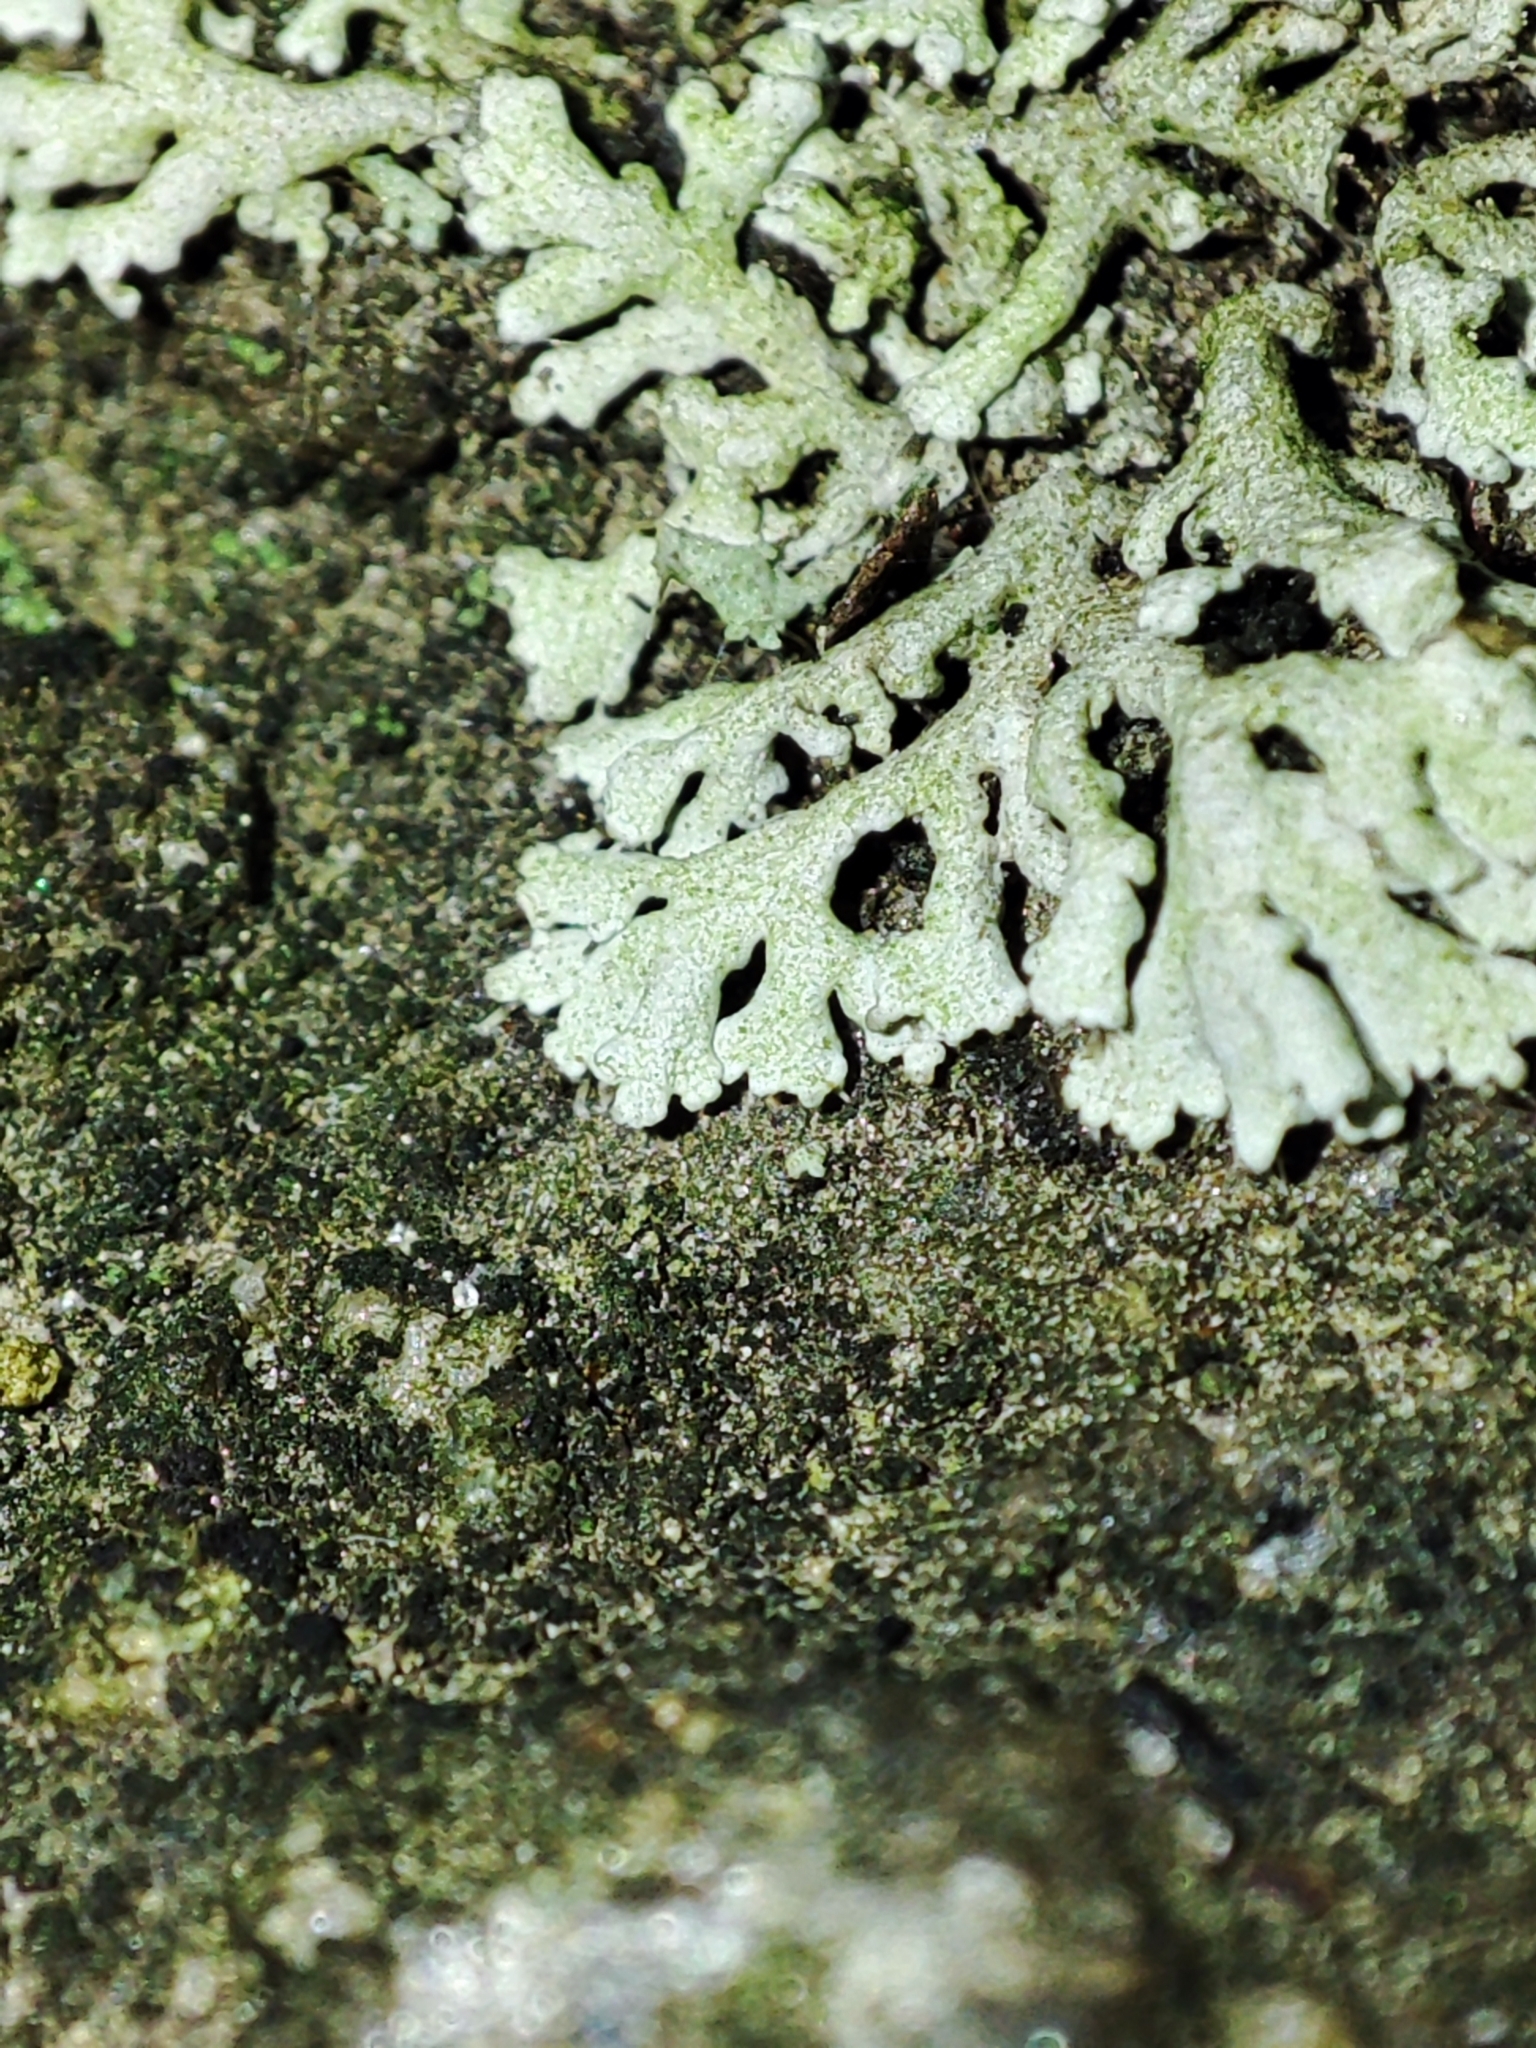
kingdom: Fungi
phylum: Ascomycota
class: Lecanoromycetes
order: Caliciales
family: Physciaceae
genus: Physcia
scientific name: Physcia dimidiata
